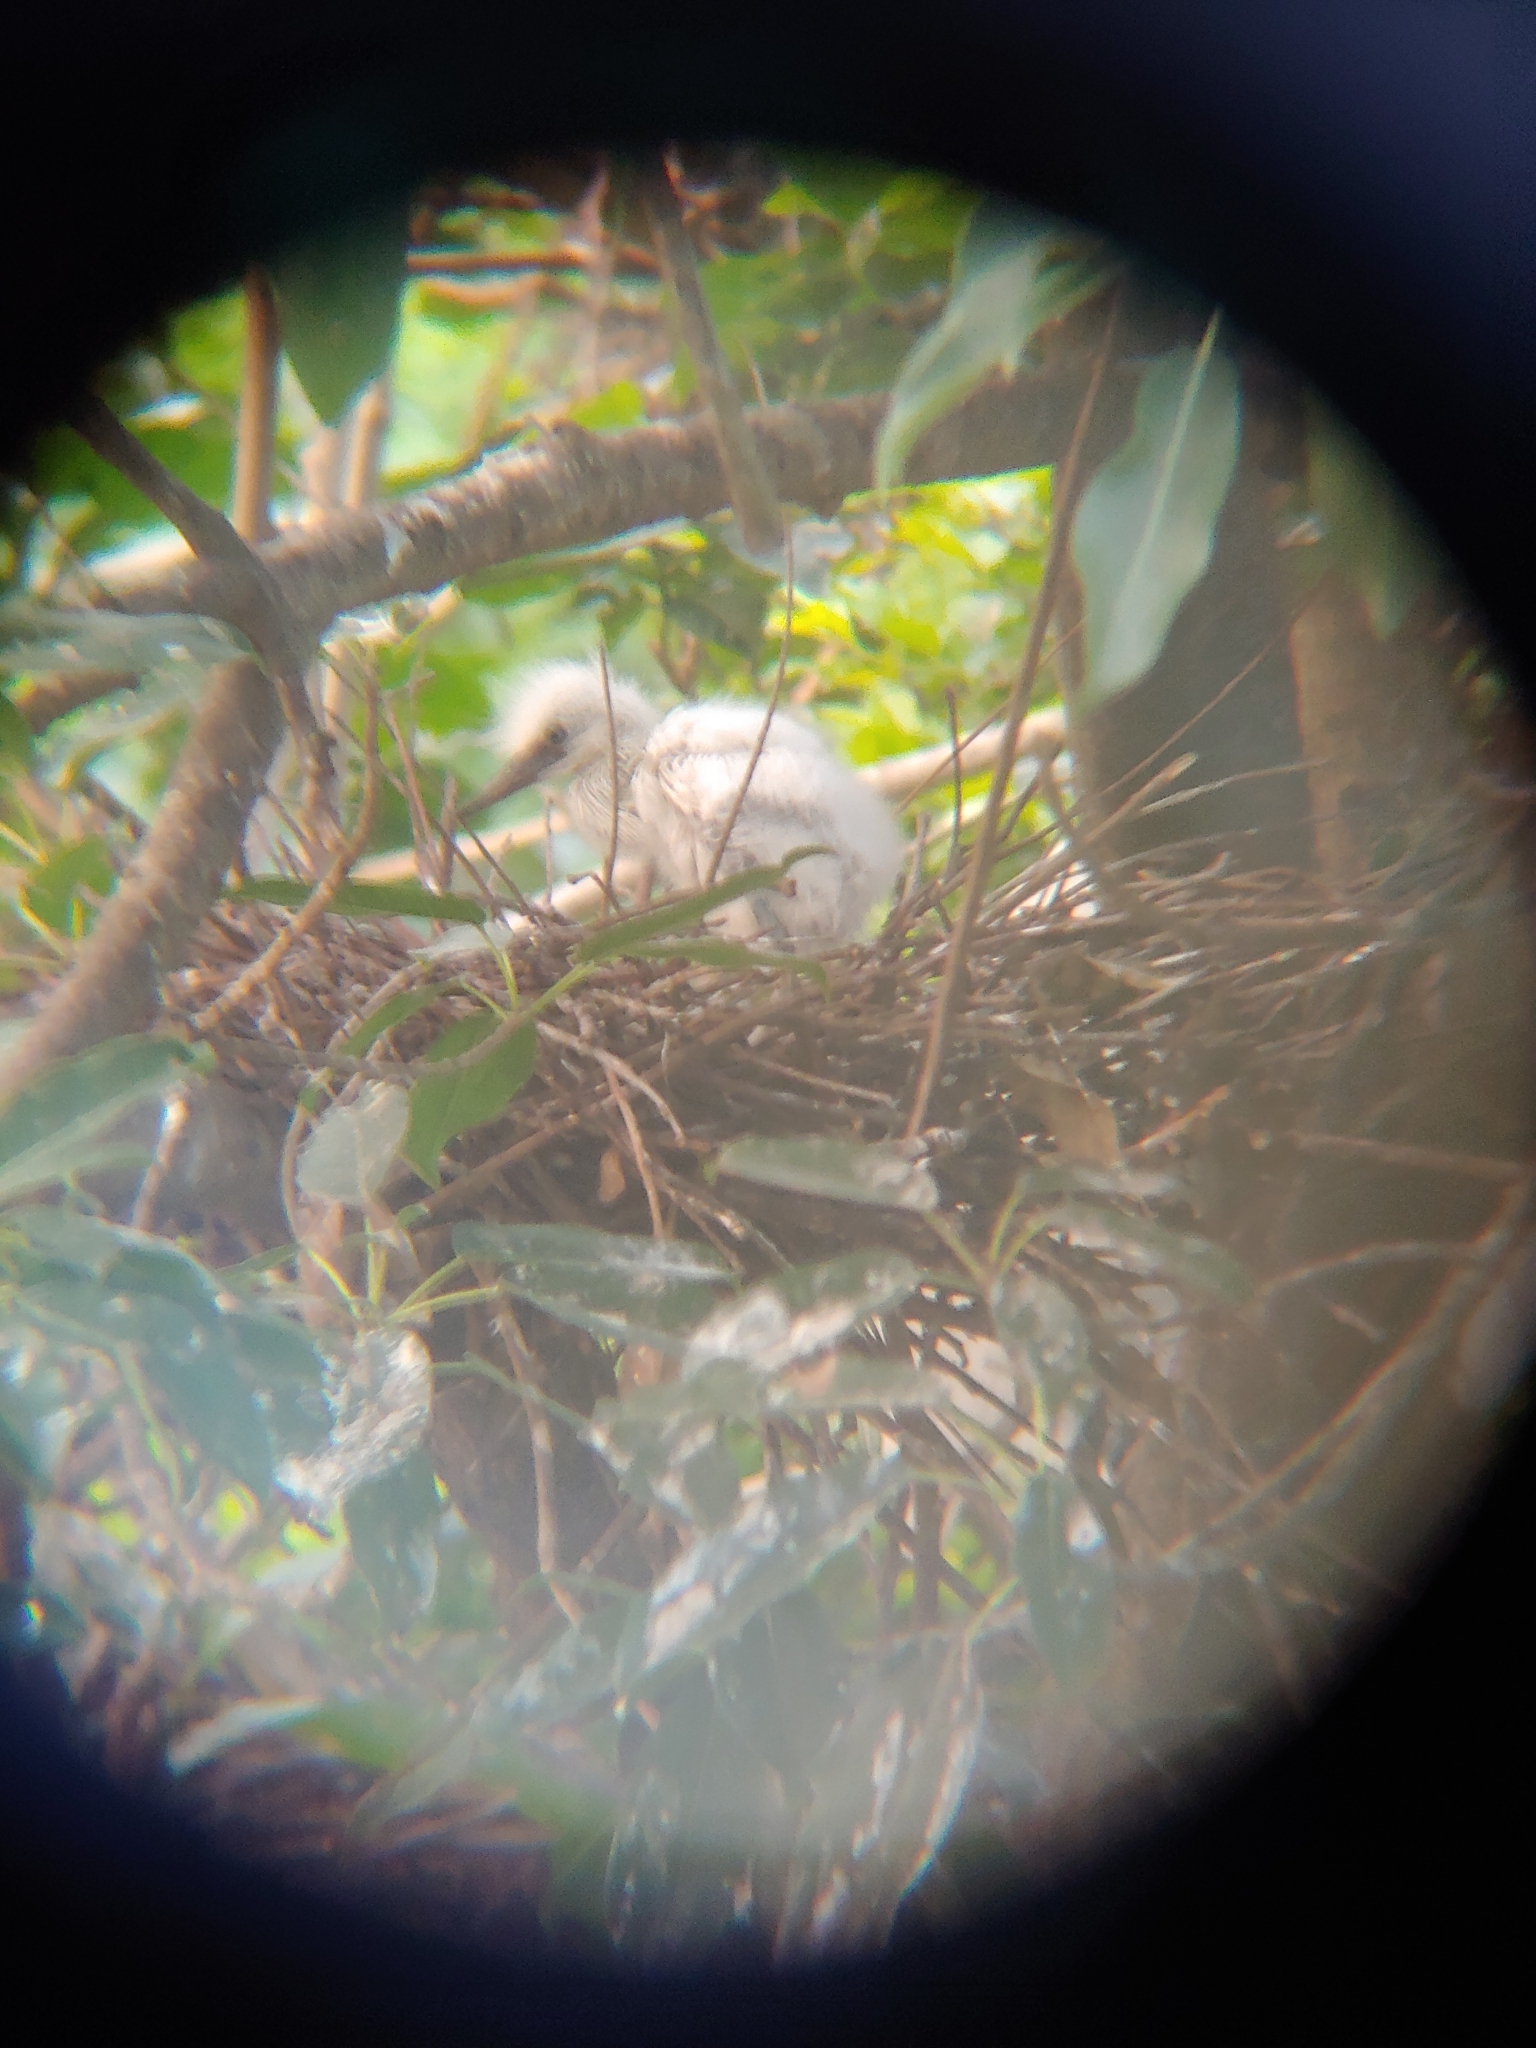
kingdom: Animalia
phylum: Chordata
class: Aves
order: Pelecaniformes
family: Ardeidae
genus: Egretta
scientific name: Egretta garzetta
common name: Little egret
